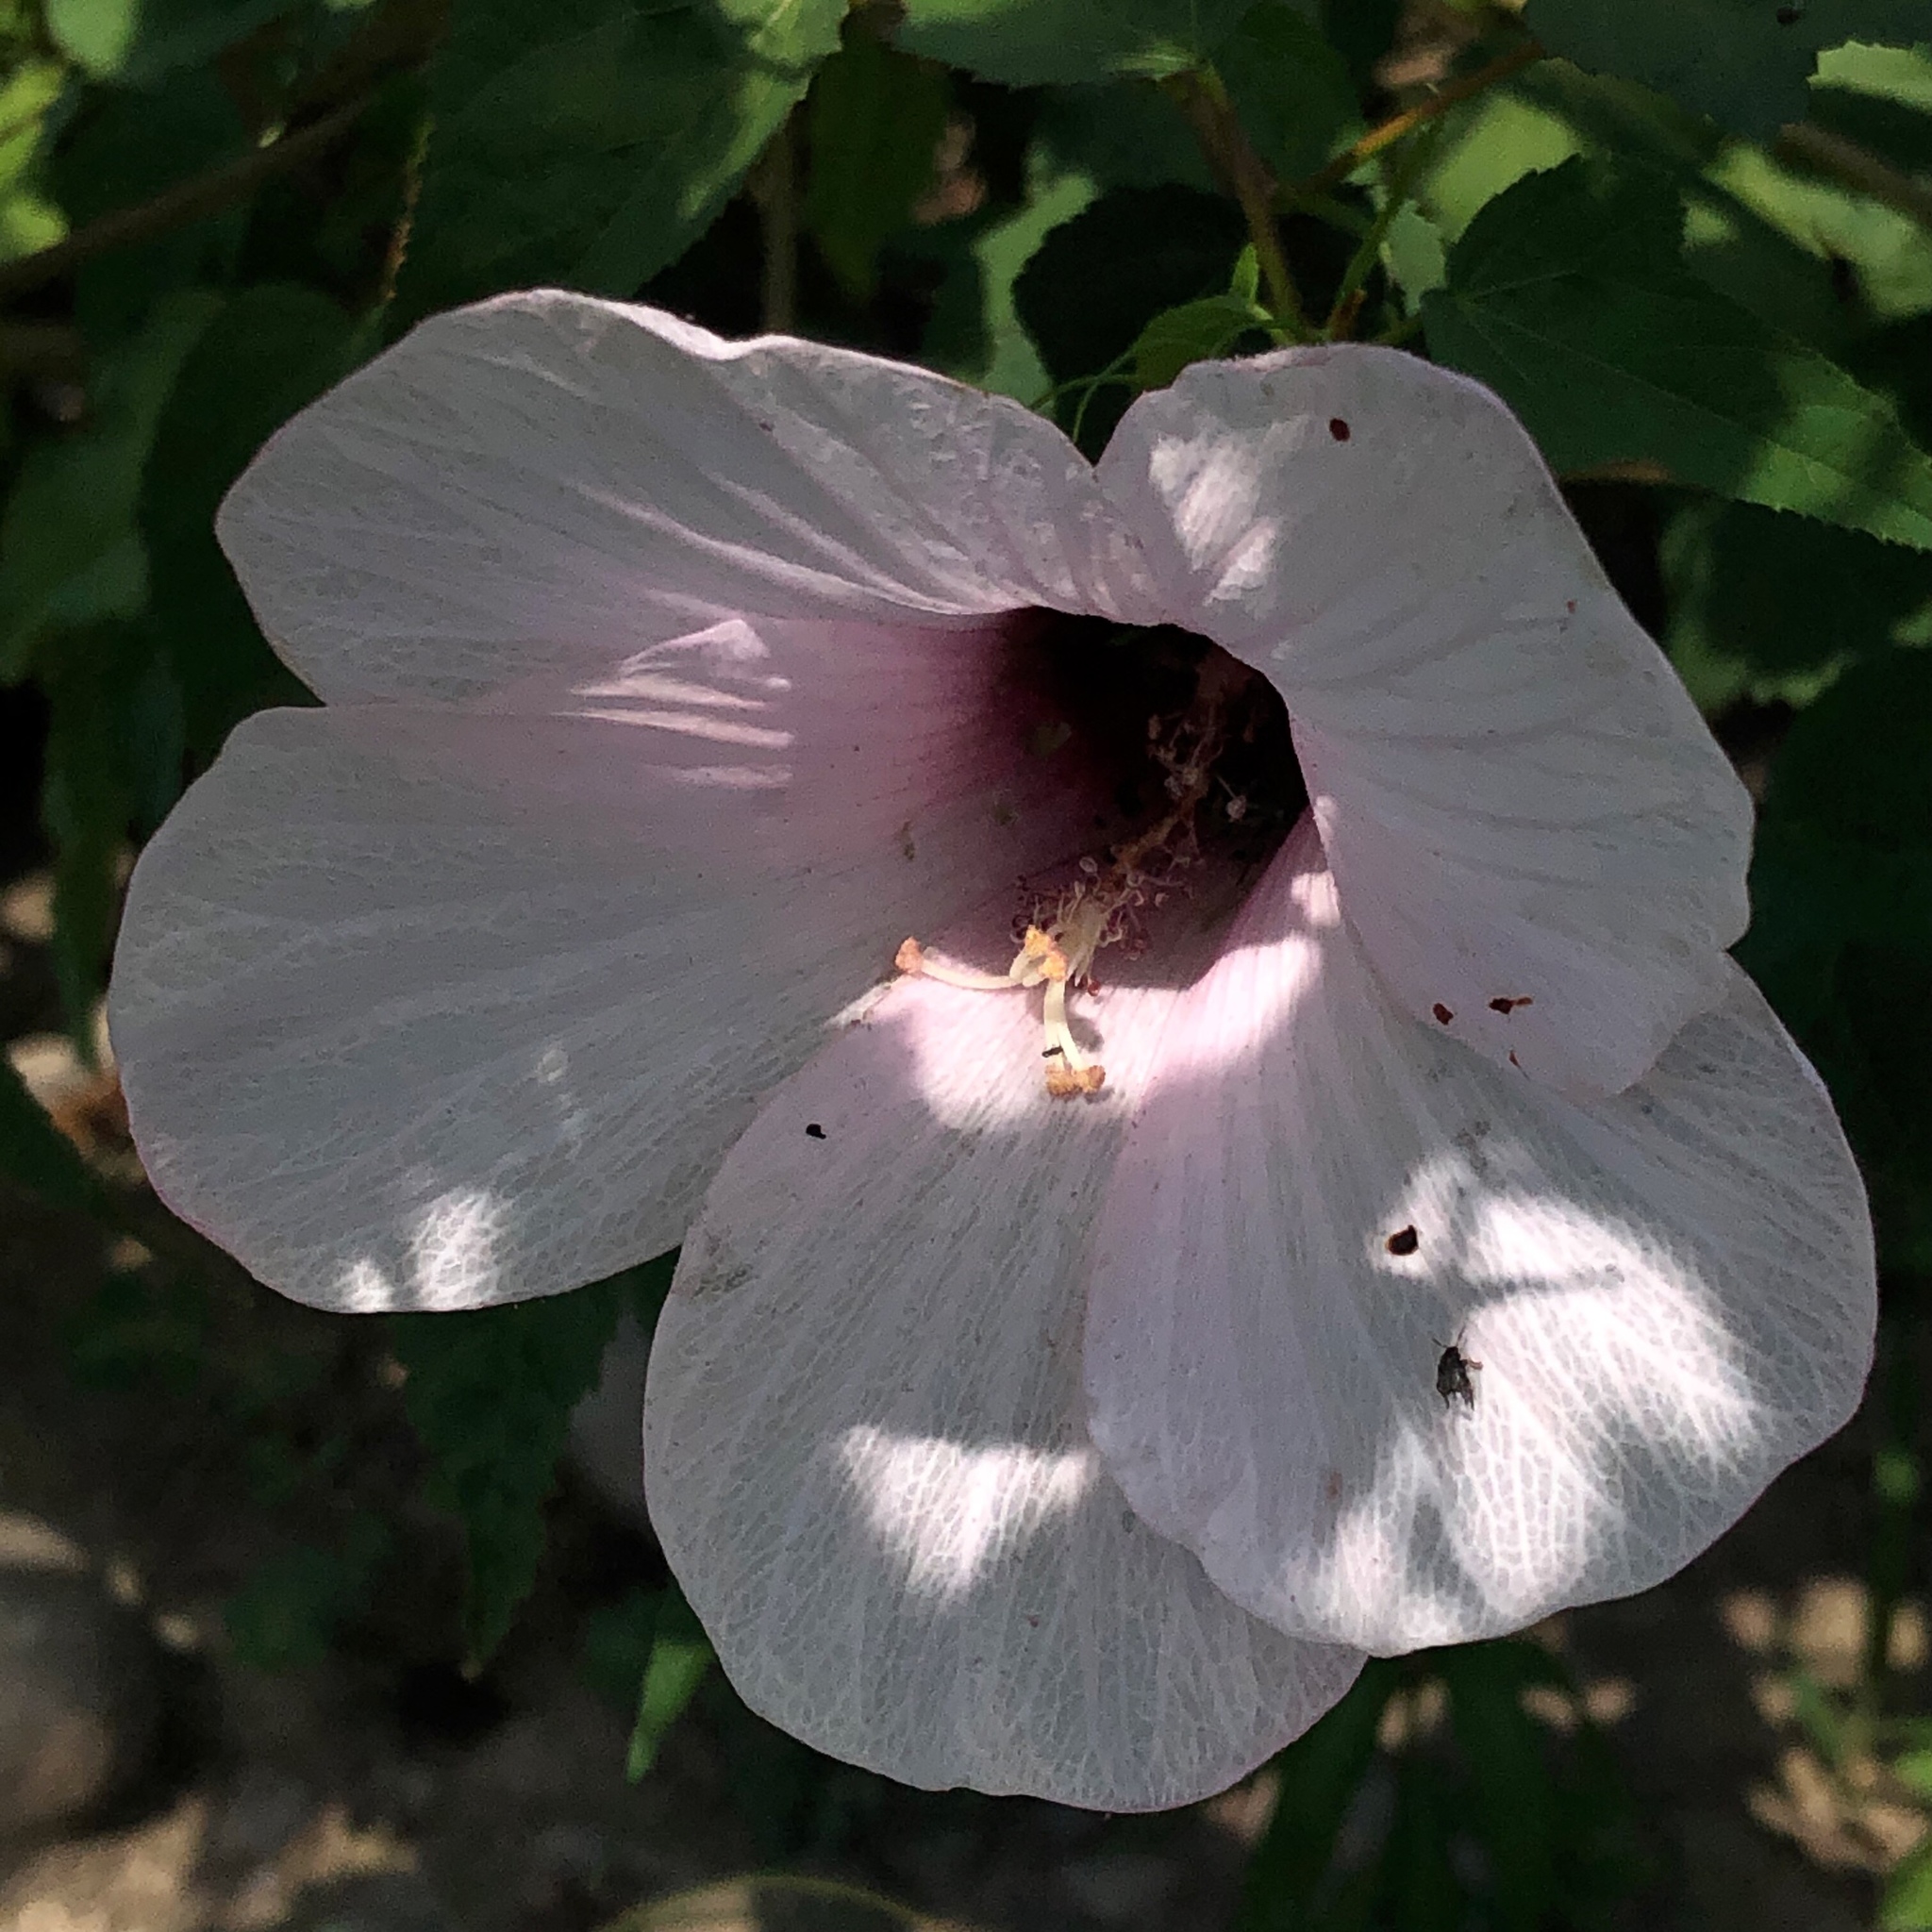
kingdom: Plantae
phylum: Tracheophyta
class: Magnoliopsida
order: Malvales
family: Malvaceae
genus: Hibiscus
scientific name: Hibiscus laevis
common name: Scarlet rose-mallow
